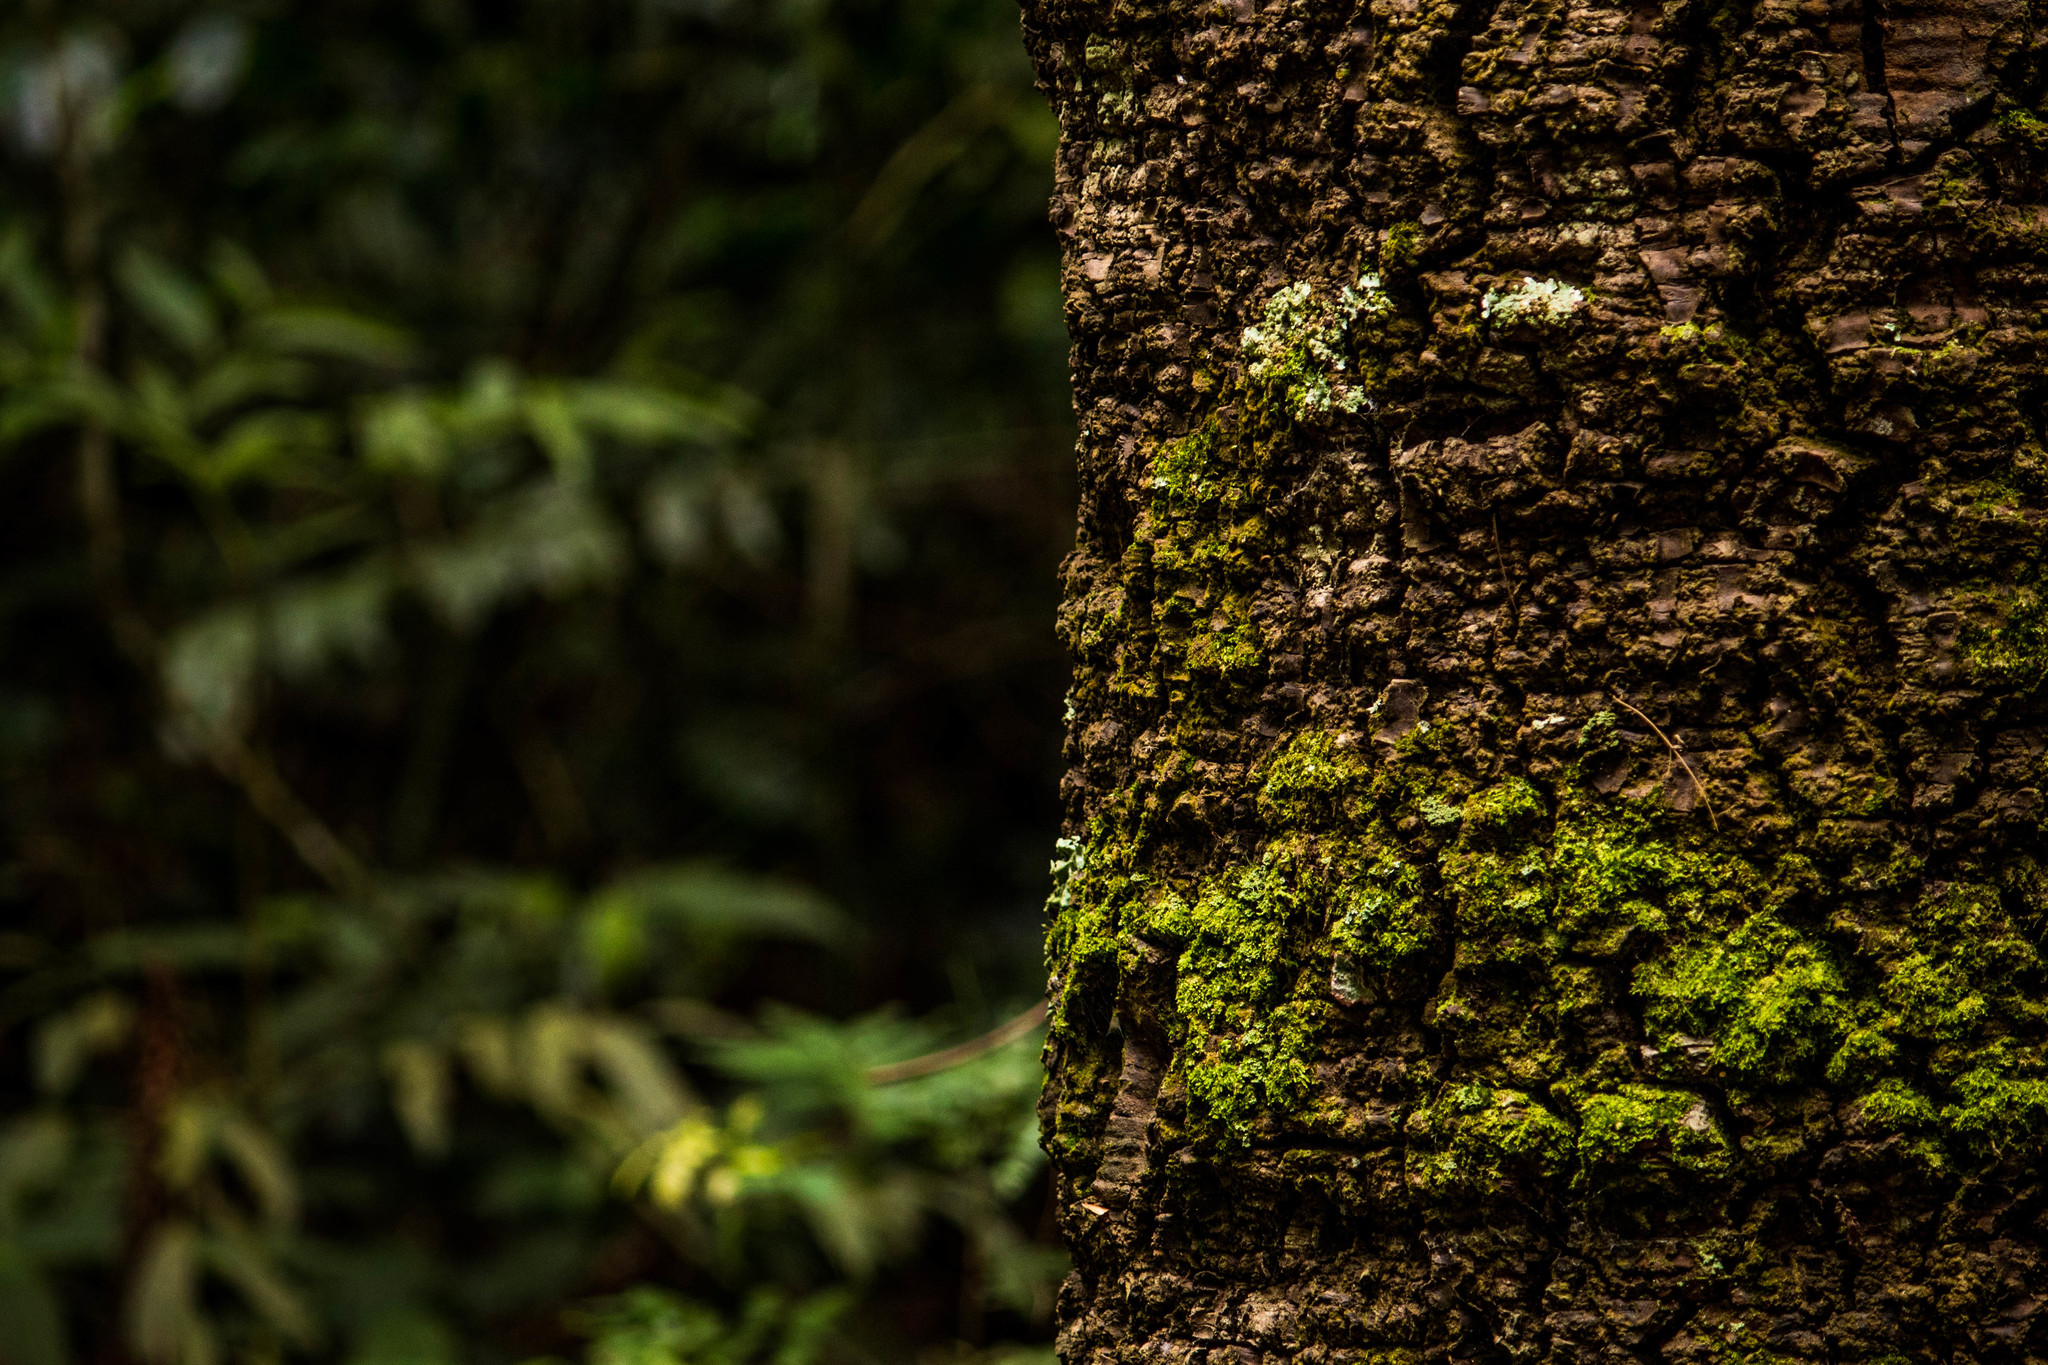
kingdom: Plantae
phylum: Tracheophyta
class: Pinopsida
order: Pinales
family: Araucariaceae
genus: Araucaria
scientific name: Araucaria angustifolia
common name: Candelabra tree
